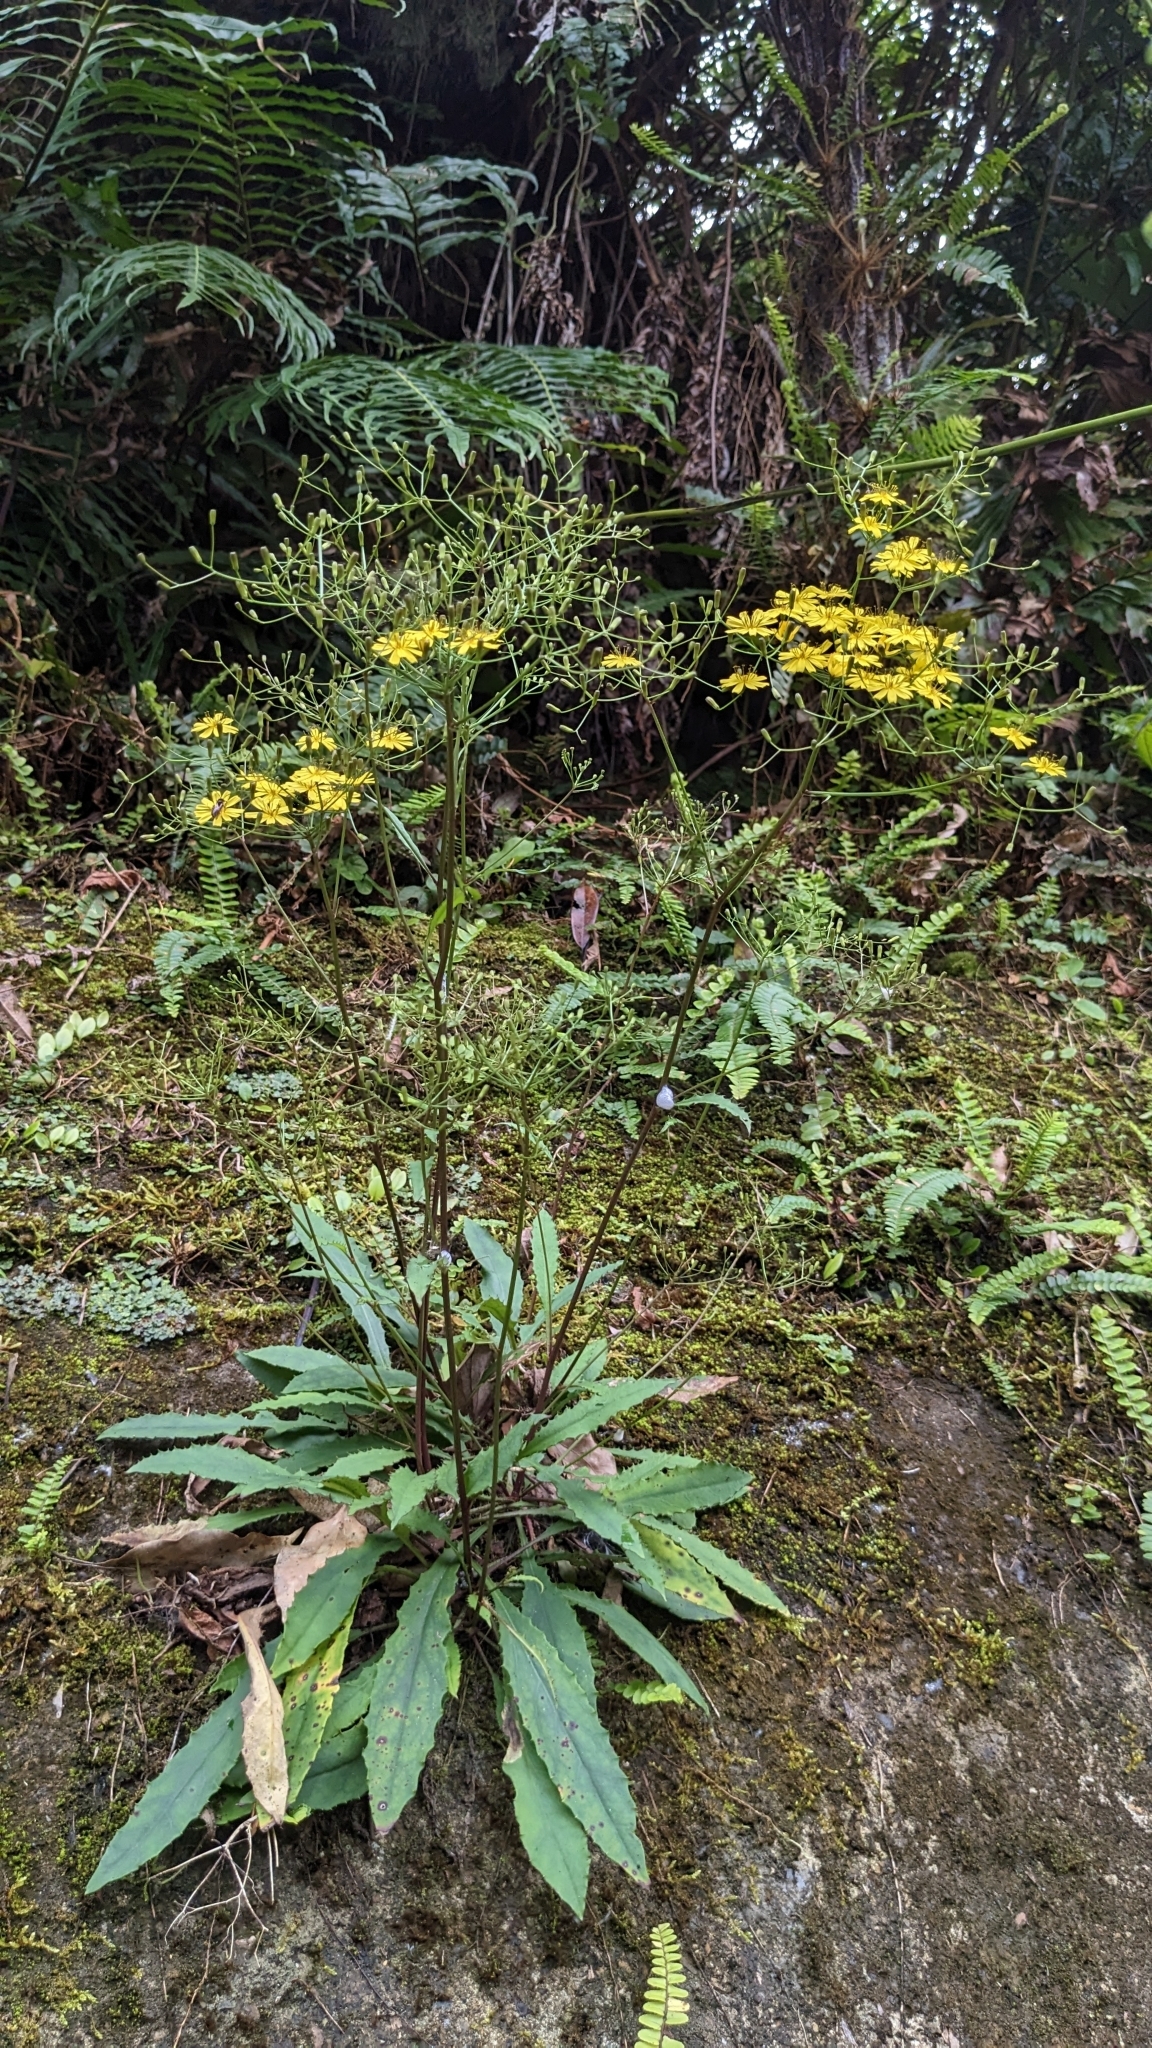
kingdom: Plantae
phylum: Tracheophyta
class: Magnoliopsida
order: Asterales
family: Asteraceae
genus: Ixeridium
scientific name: Ixeridium laevigatum
